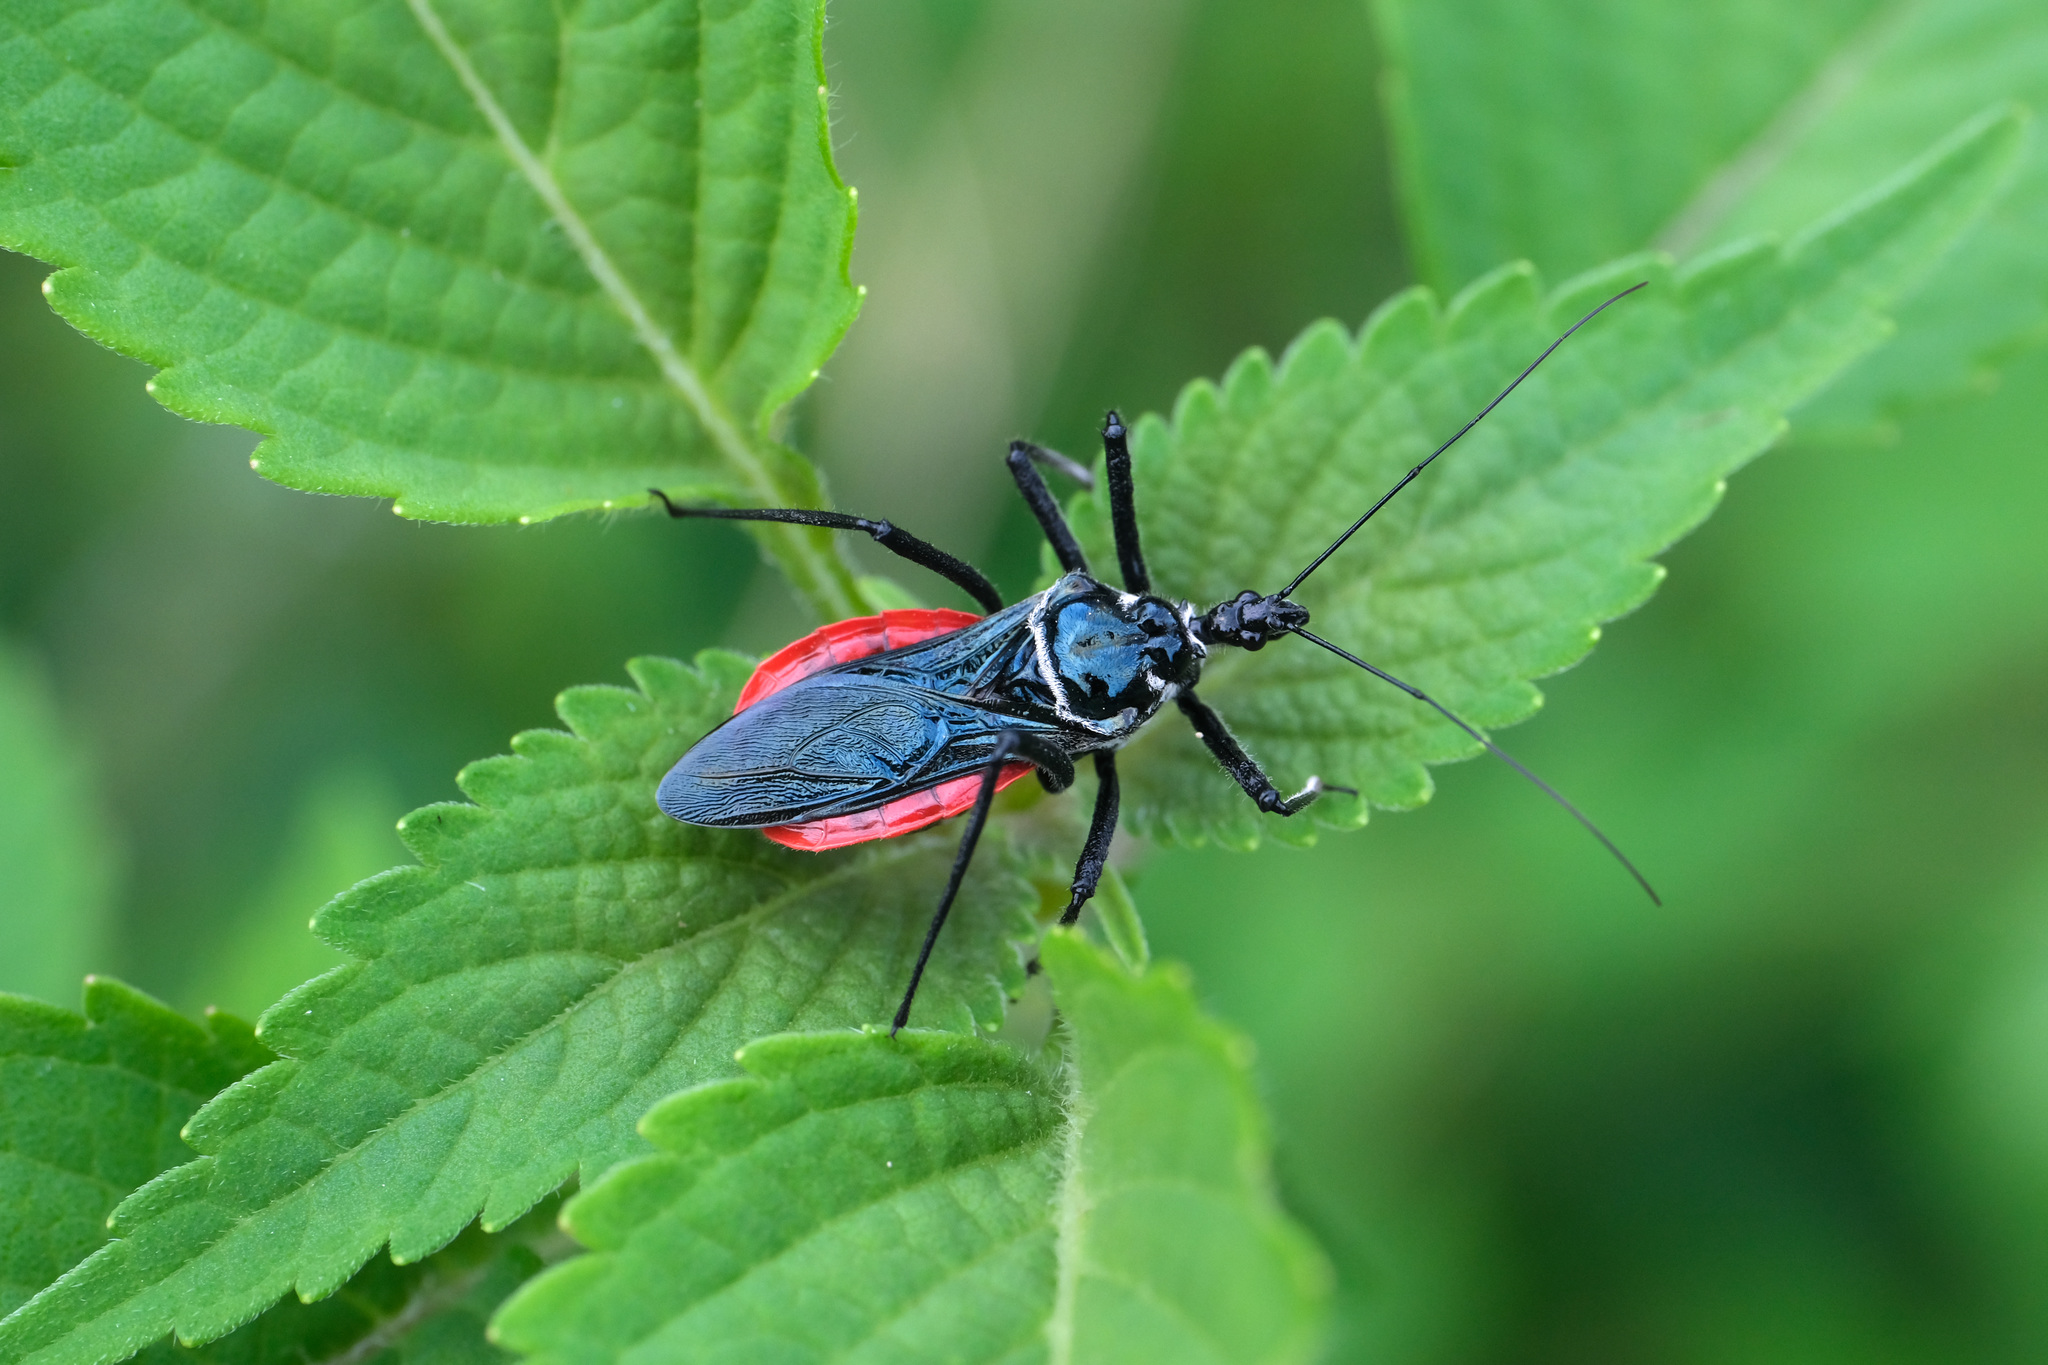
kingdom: Animalia
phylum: Arthropoda
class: Insecta
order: Hemiptera
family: Reduviidae
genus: Sphedanolestes
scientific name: Sphedanolestes pubinotus
